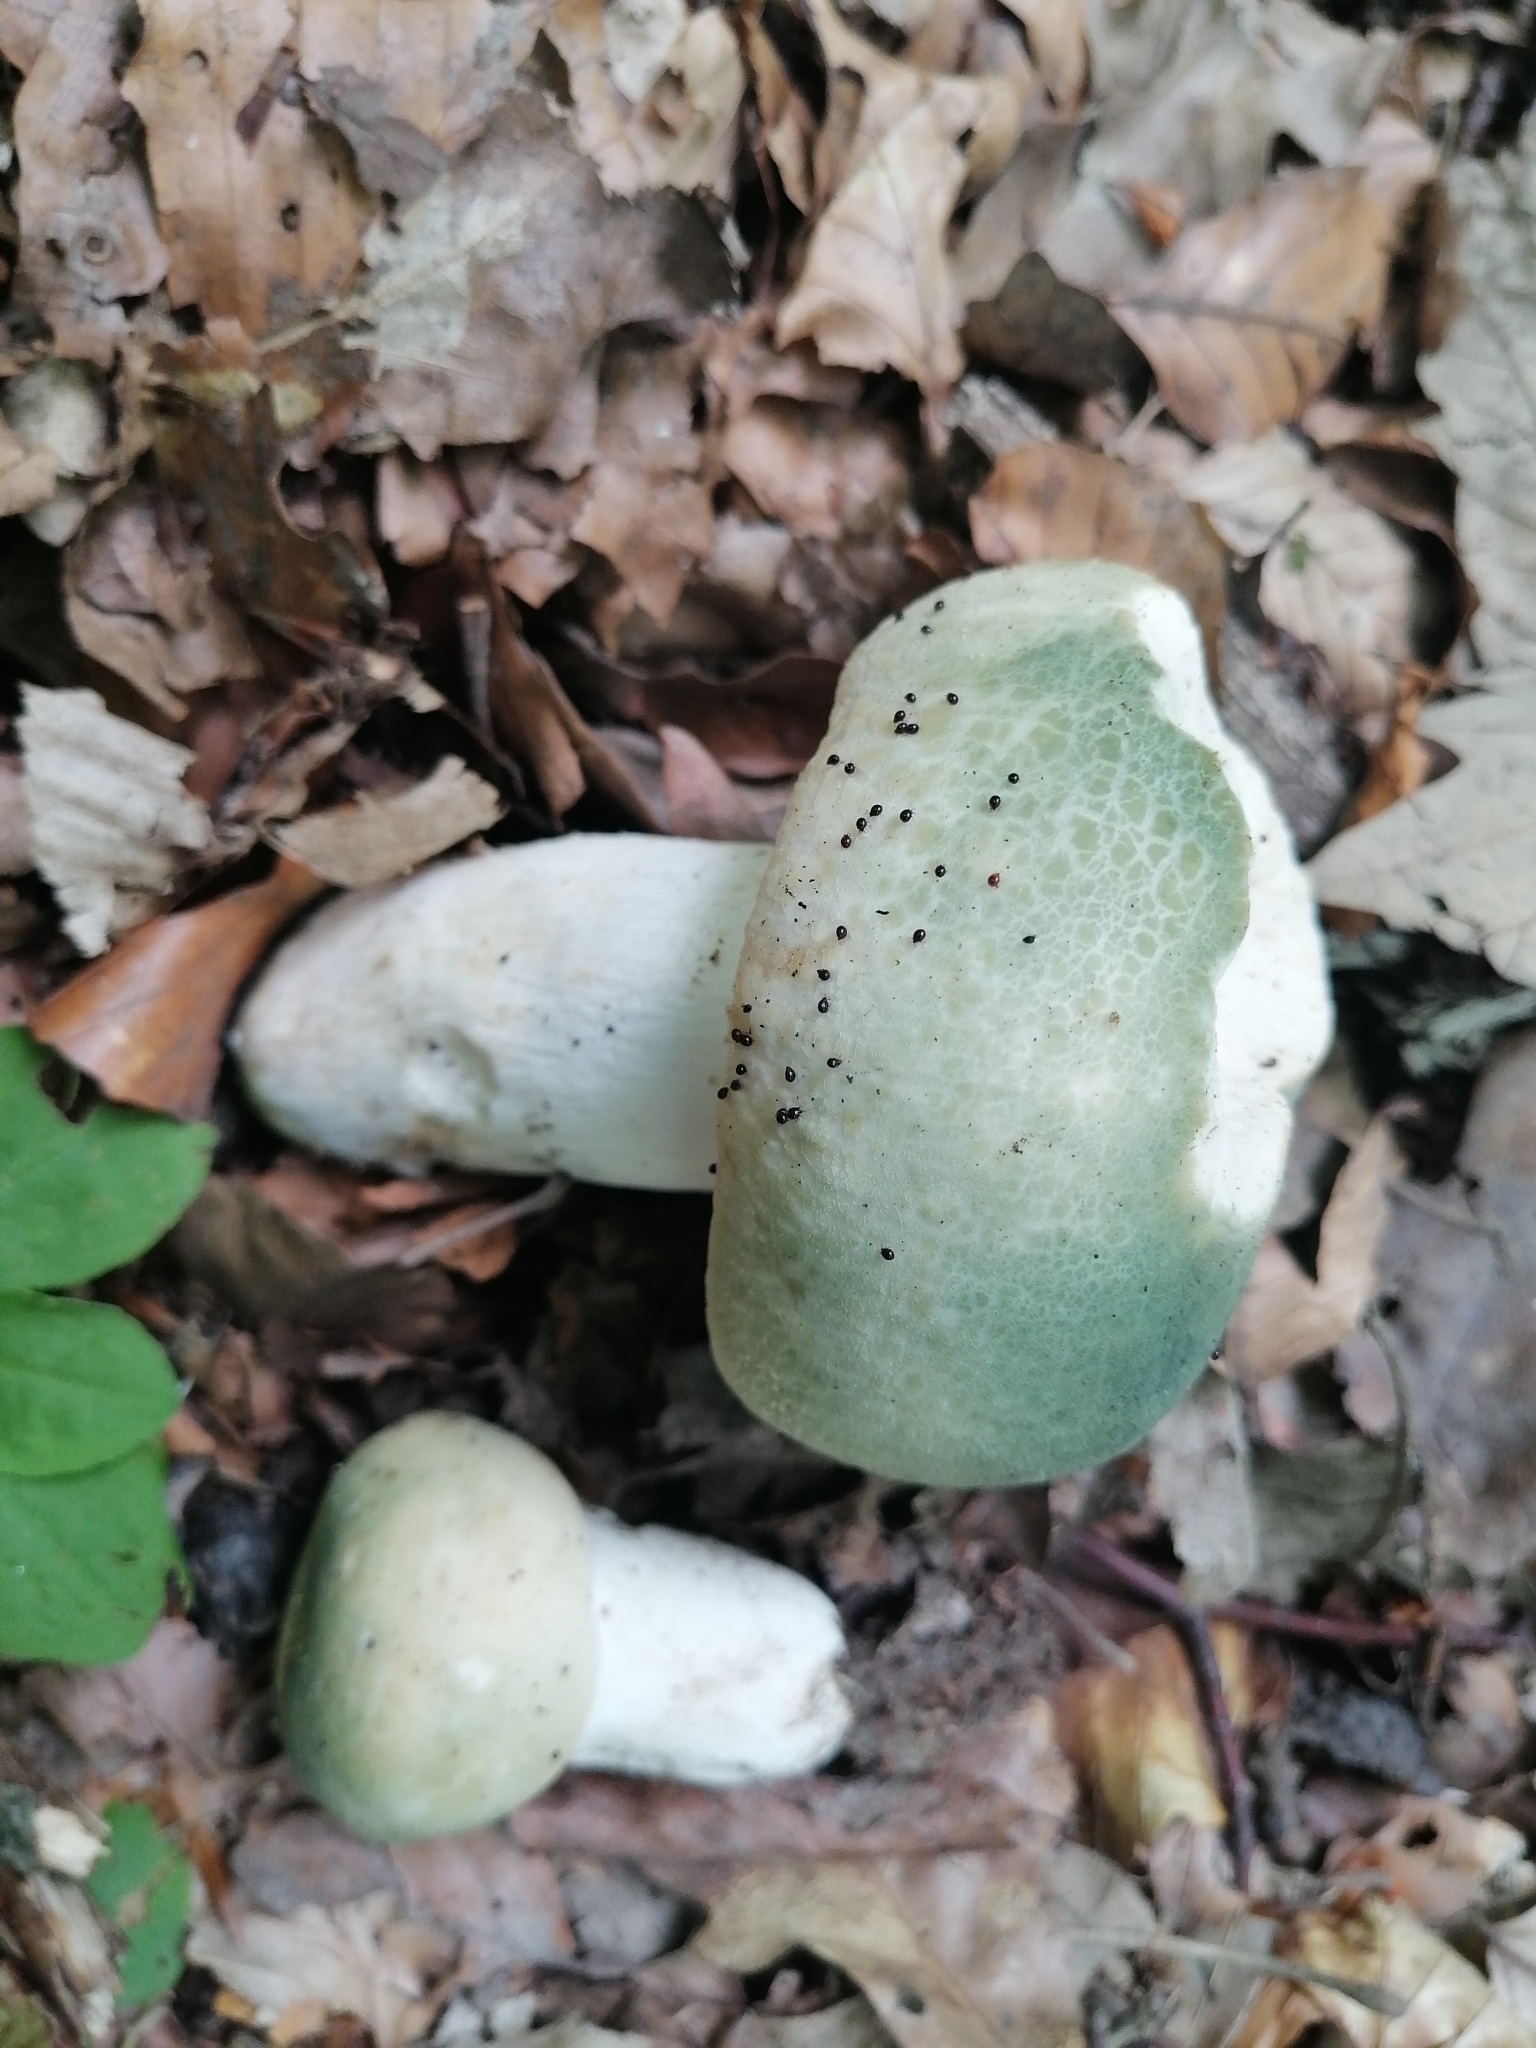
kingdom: Fungi
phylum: Basidiomycota
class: Agaricomycetes
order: Russulales
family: Russulaceae
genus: Russula
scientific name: Russula virescens
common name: Greencracked brittlegill
